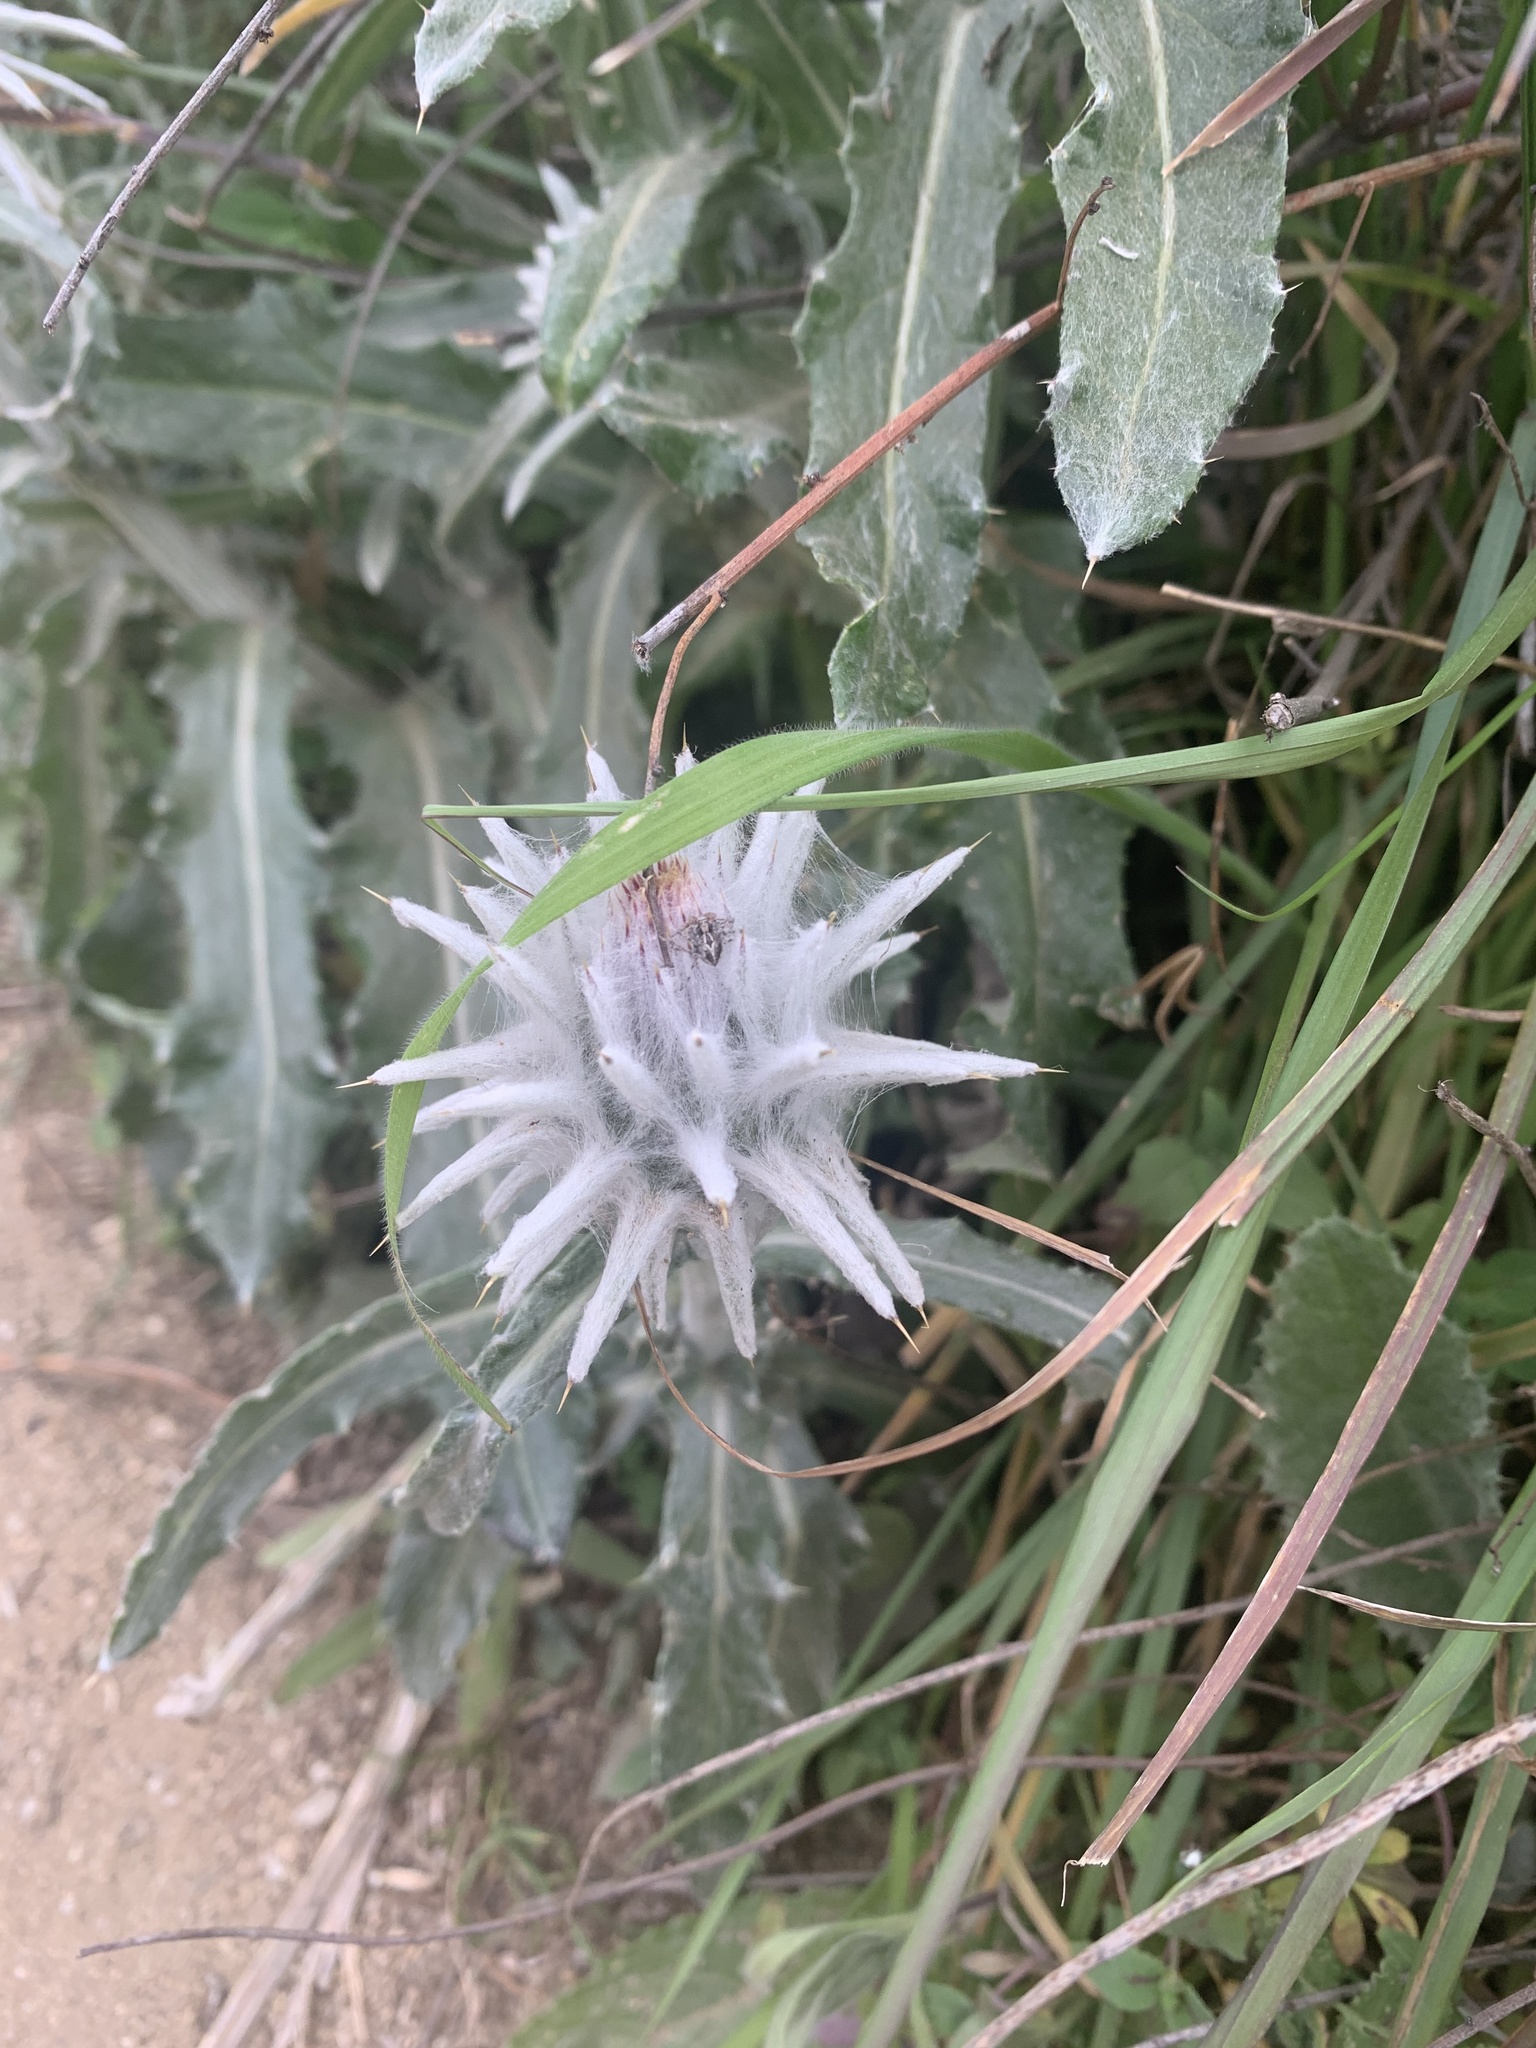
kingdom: Plantae
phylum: Tracheophyta
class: Magnoliopsida
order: Asterales
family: Asteraceae
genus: Cirsium
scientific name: Cirsium occidentale
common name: Western thistle
